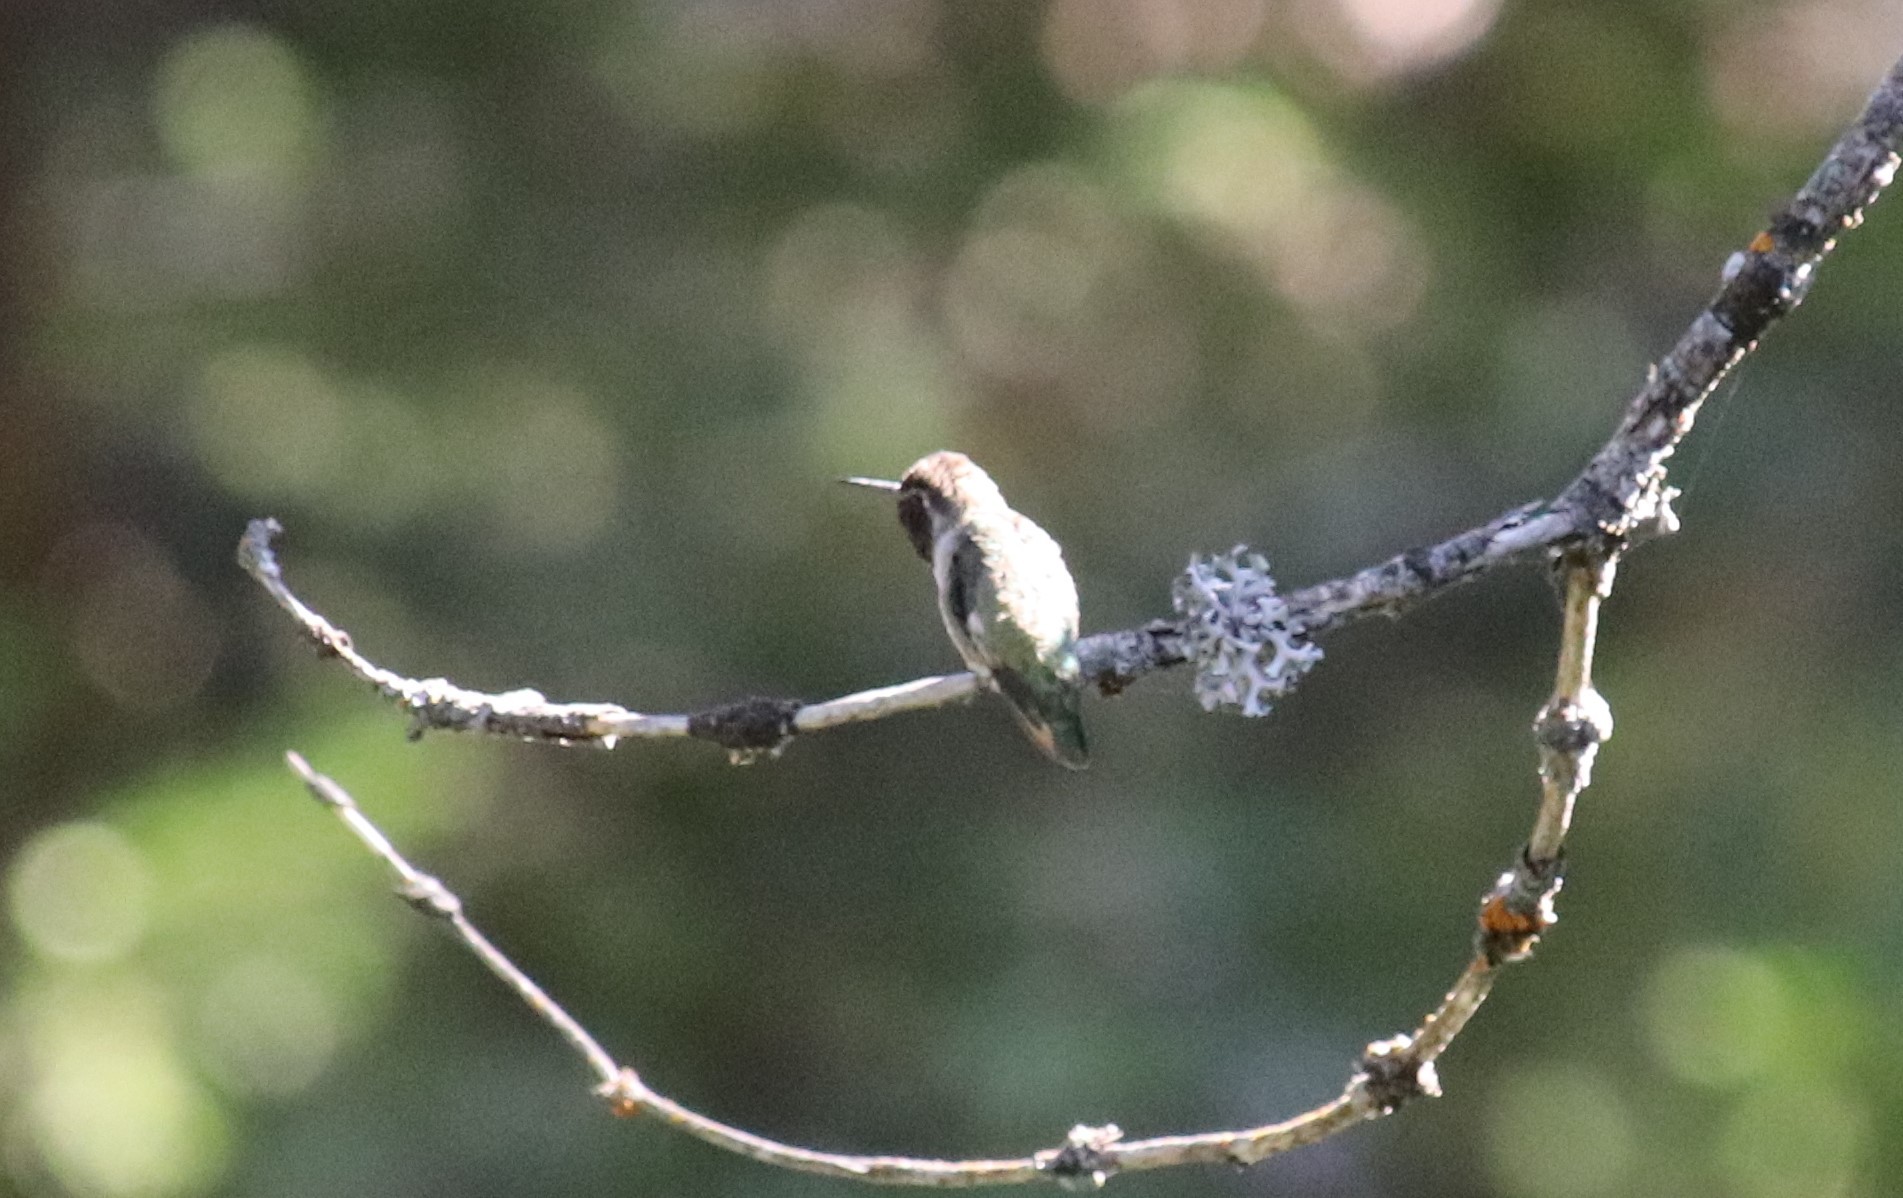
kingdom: Animalia
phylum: Chordata
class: Aves
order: Apodiformes
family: Trochilidae
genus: Calypte
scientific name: Calypte anna
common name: Anna's hummingbird
